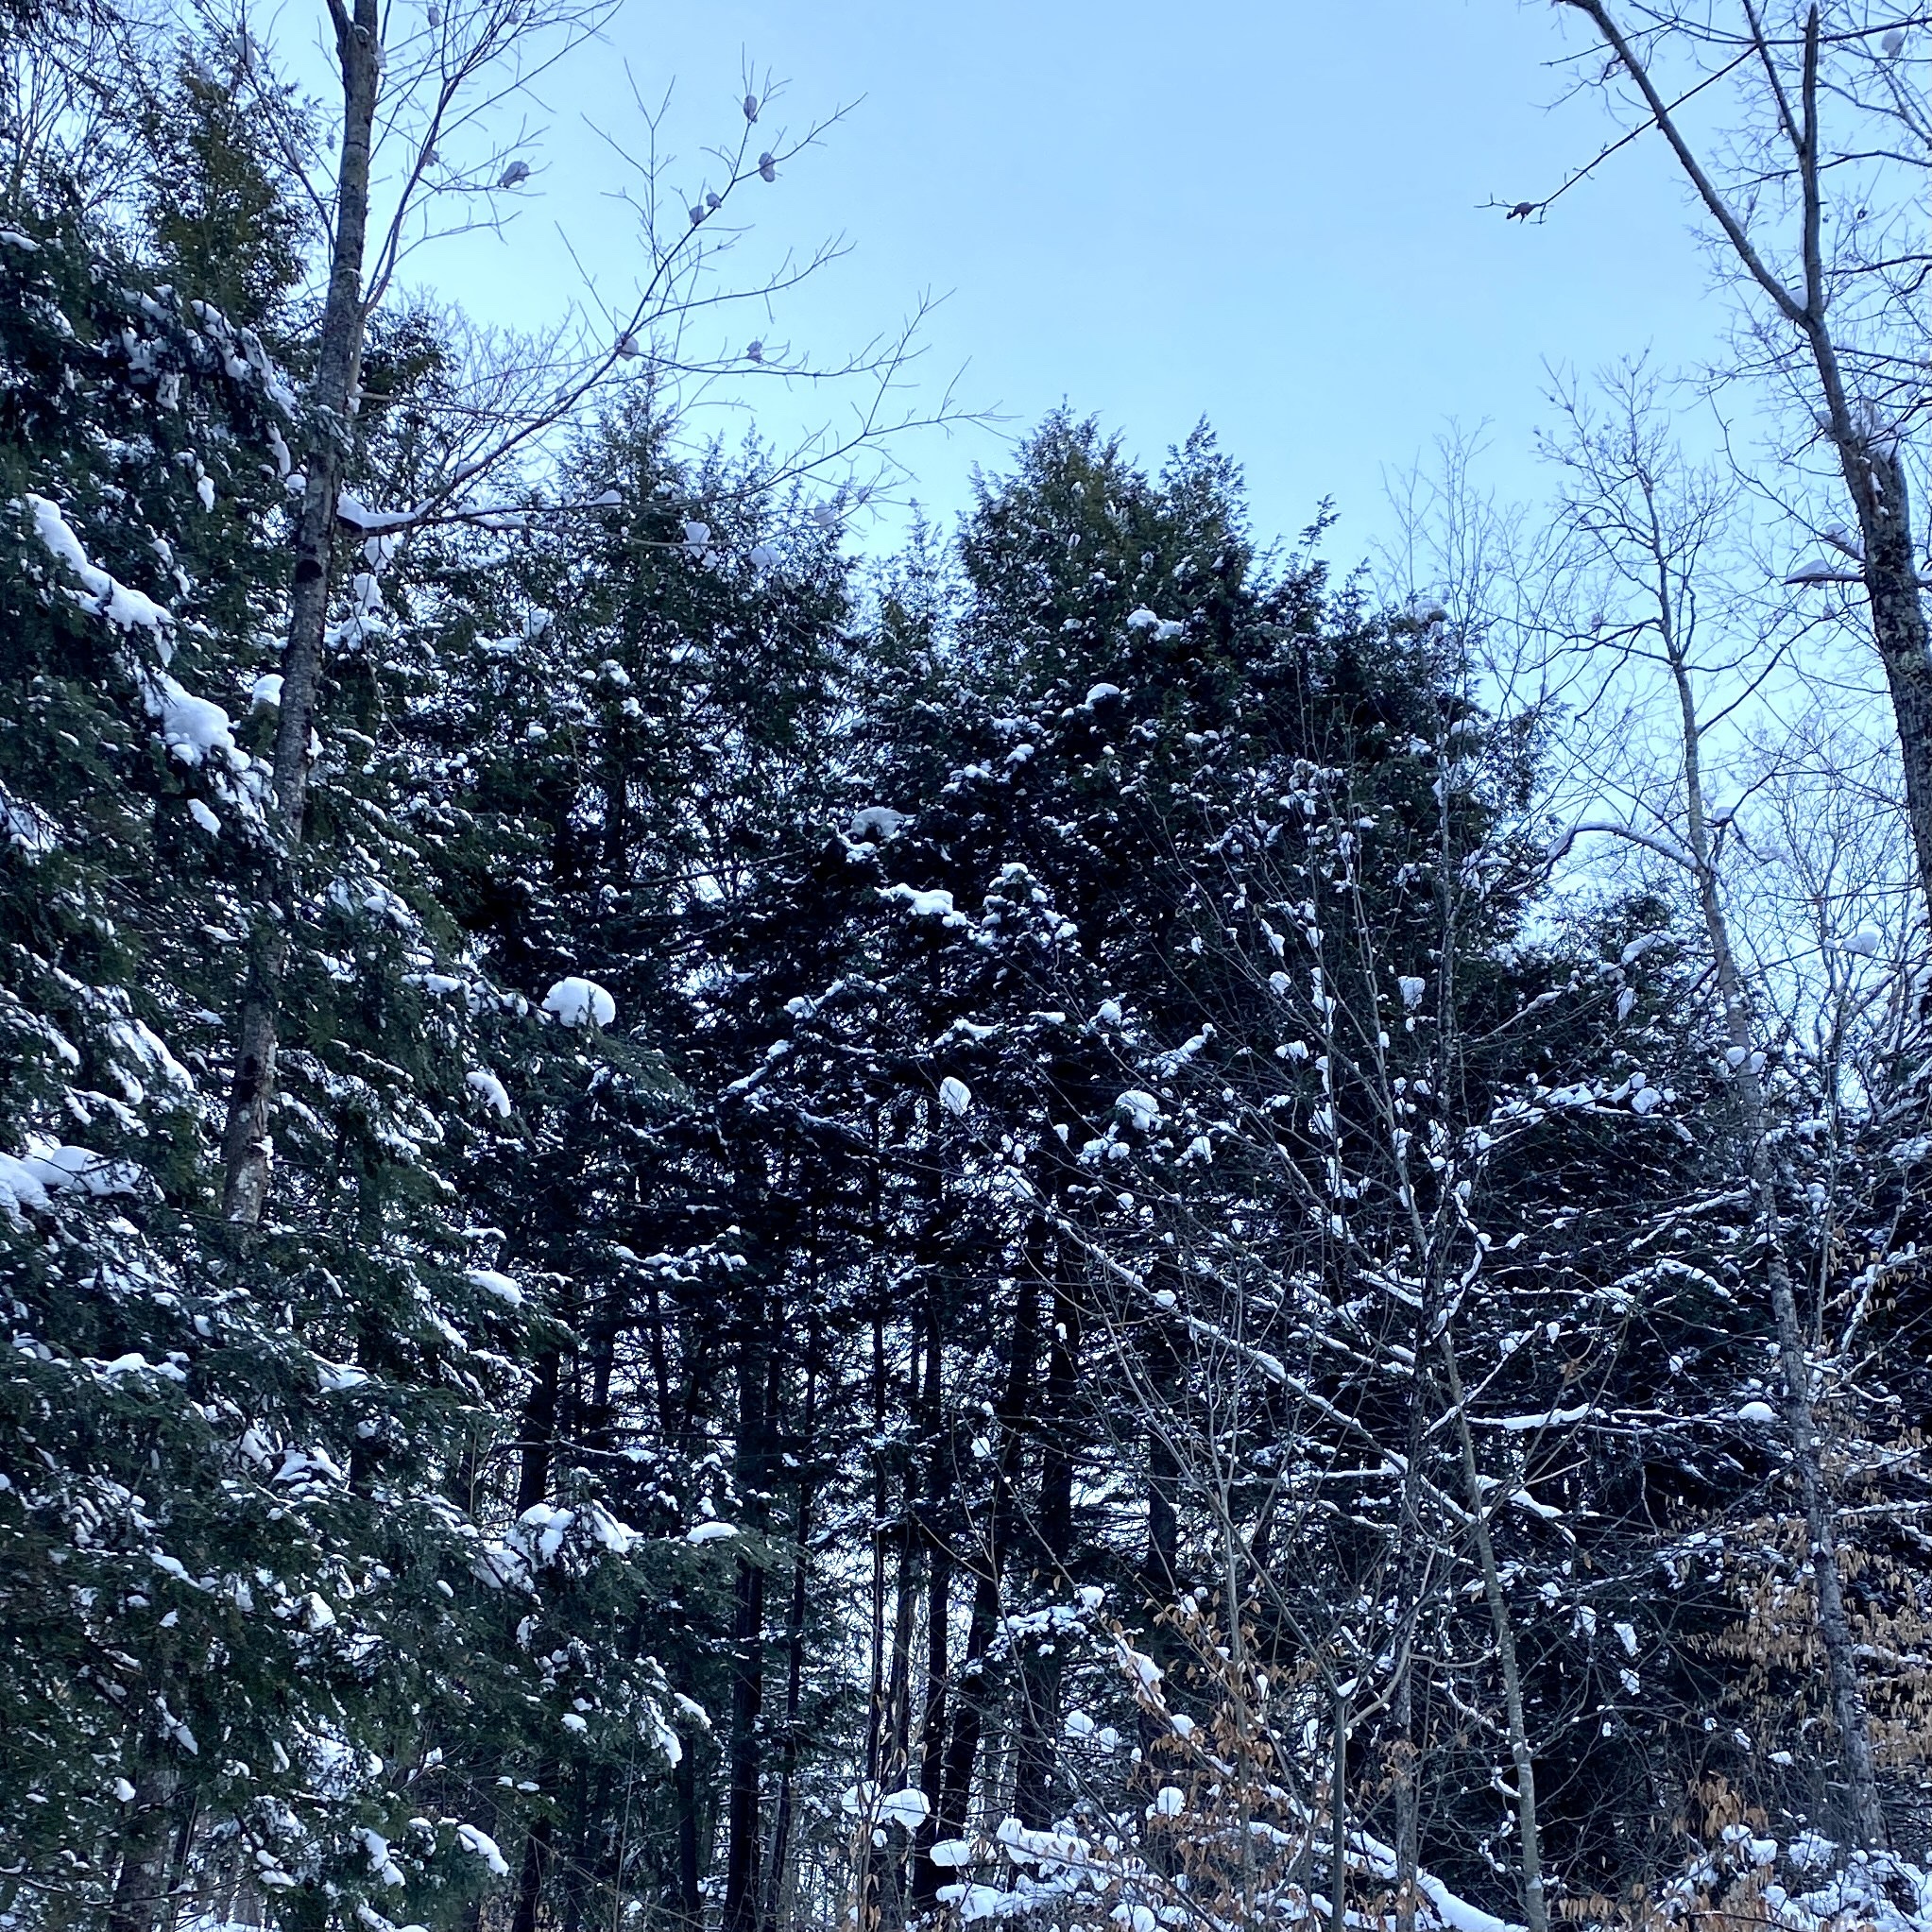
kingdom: Plantae
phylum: Tracheophyta
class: Pinopsida
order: Pinales
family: Pinaceae
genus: Tsuga
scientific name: Tsuga canadensis
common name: Eastern hemlock
